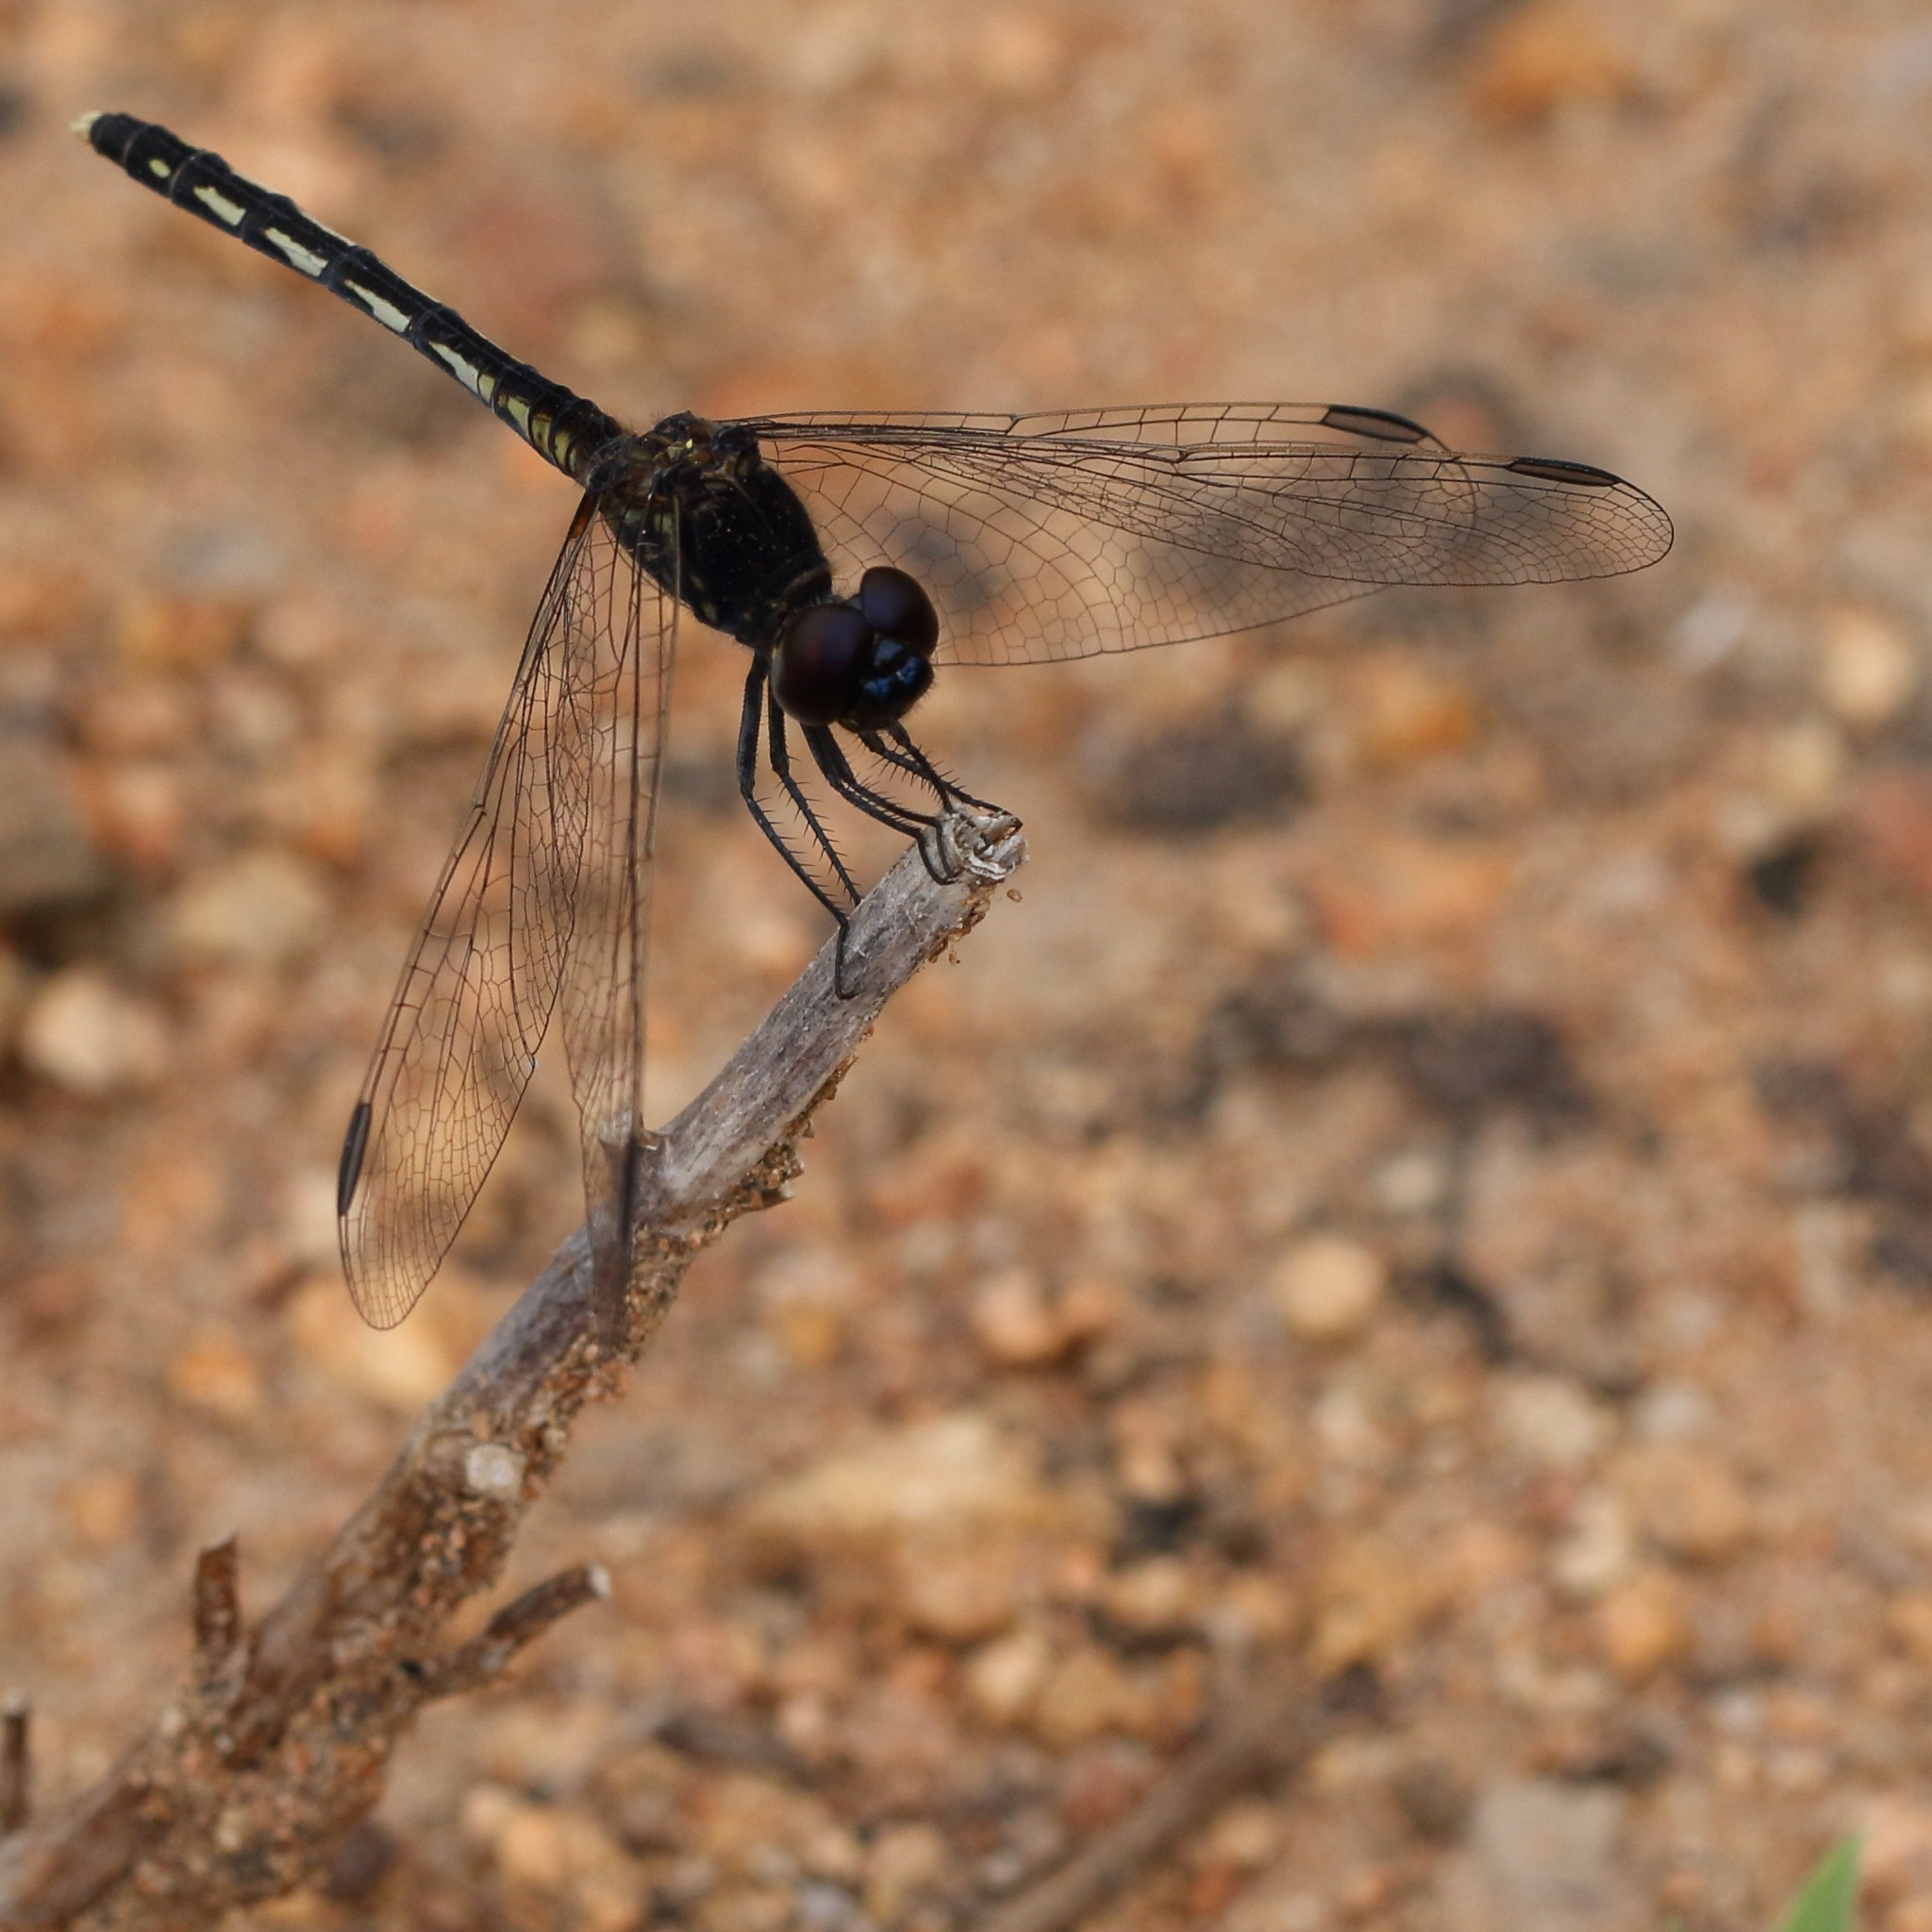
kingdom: Animalia
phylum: Arthropoda
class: Insecta
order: Odonata
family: Libellulidae
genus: Diplacodes
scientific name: Diplacodes lefebvrii
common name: Black percher
